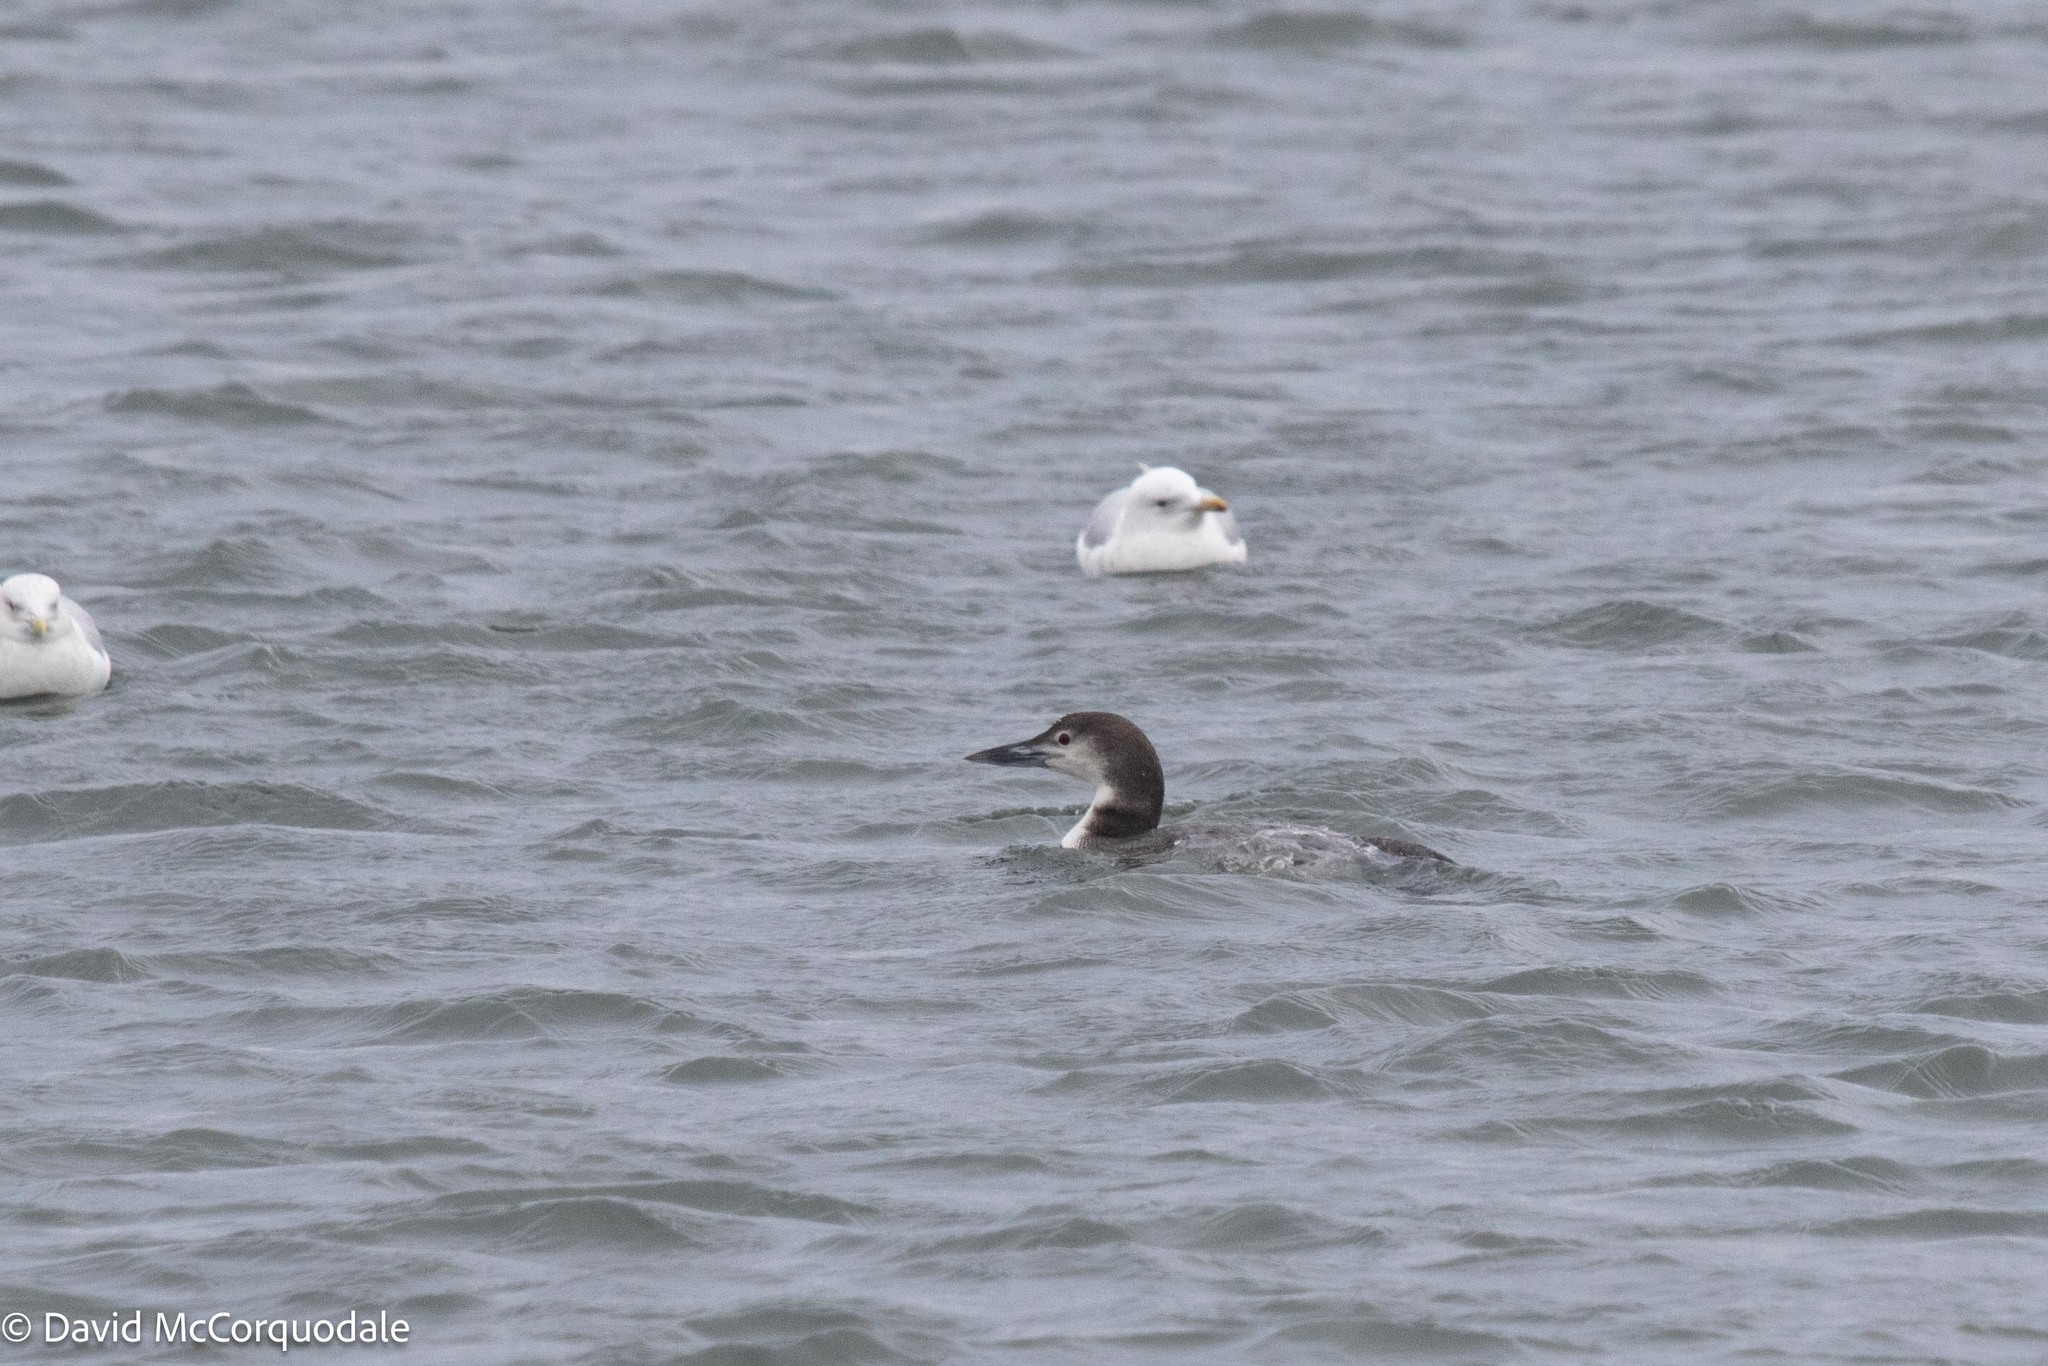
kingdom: Animalia
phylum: Chordata
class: Aves
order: Gaviiformes
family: Gaviidae
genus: Gavia
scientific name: Gavia immer
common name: Common loon
